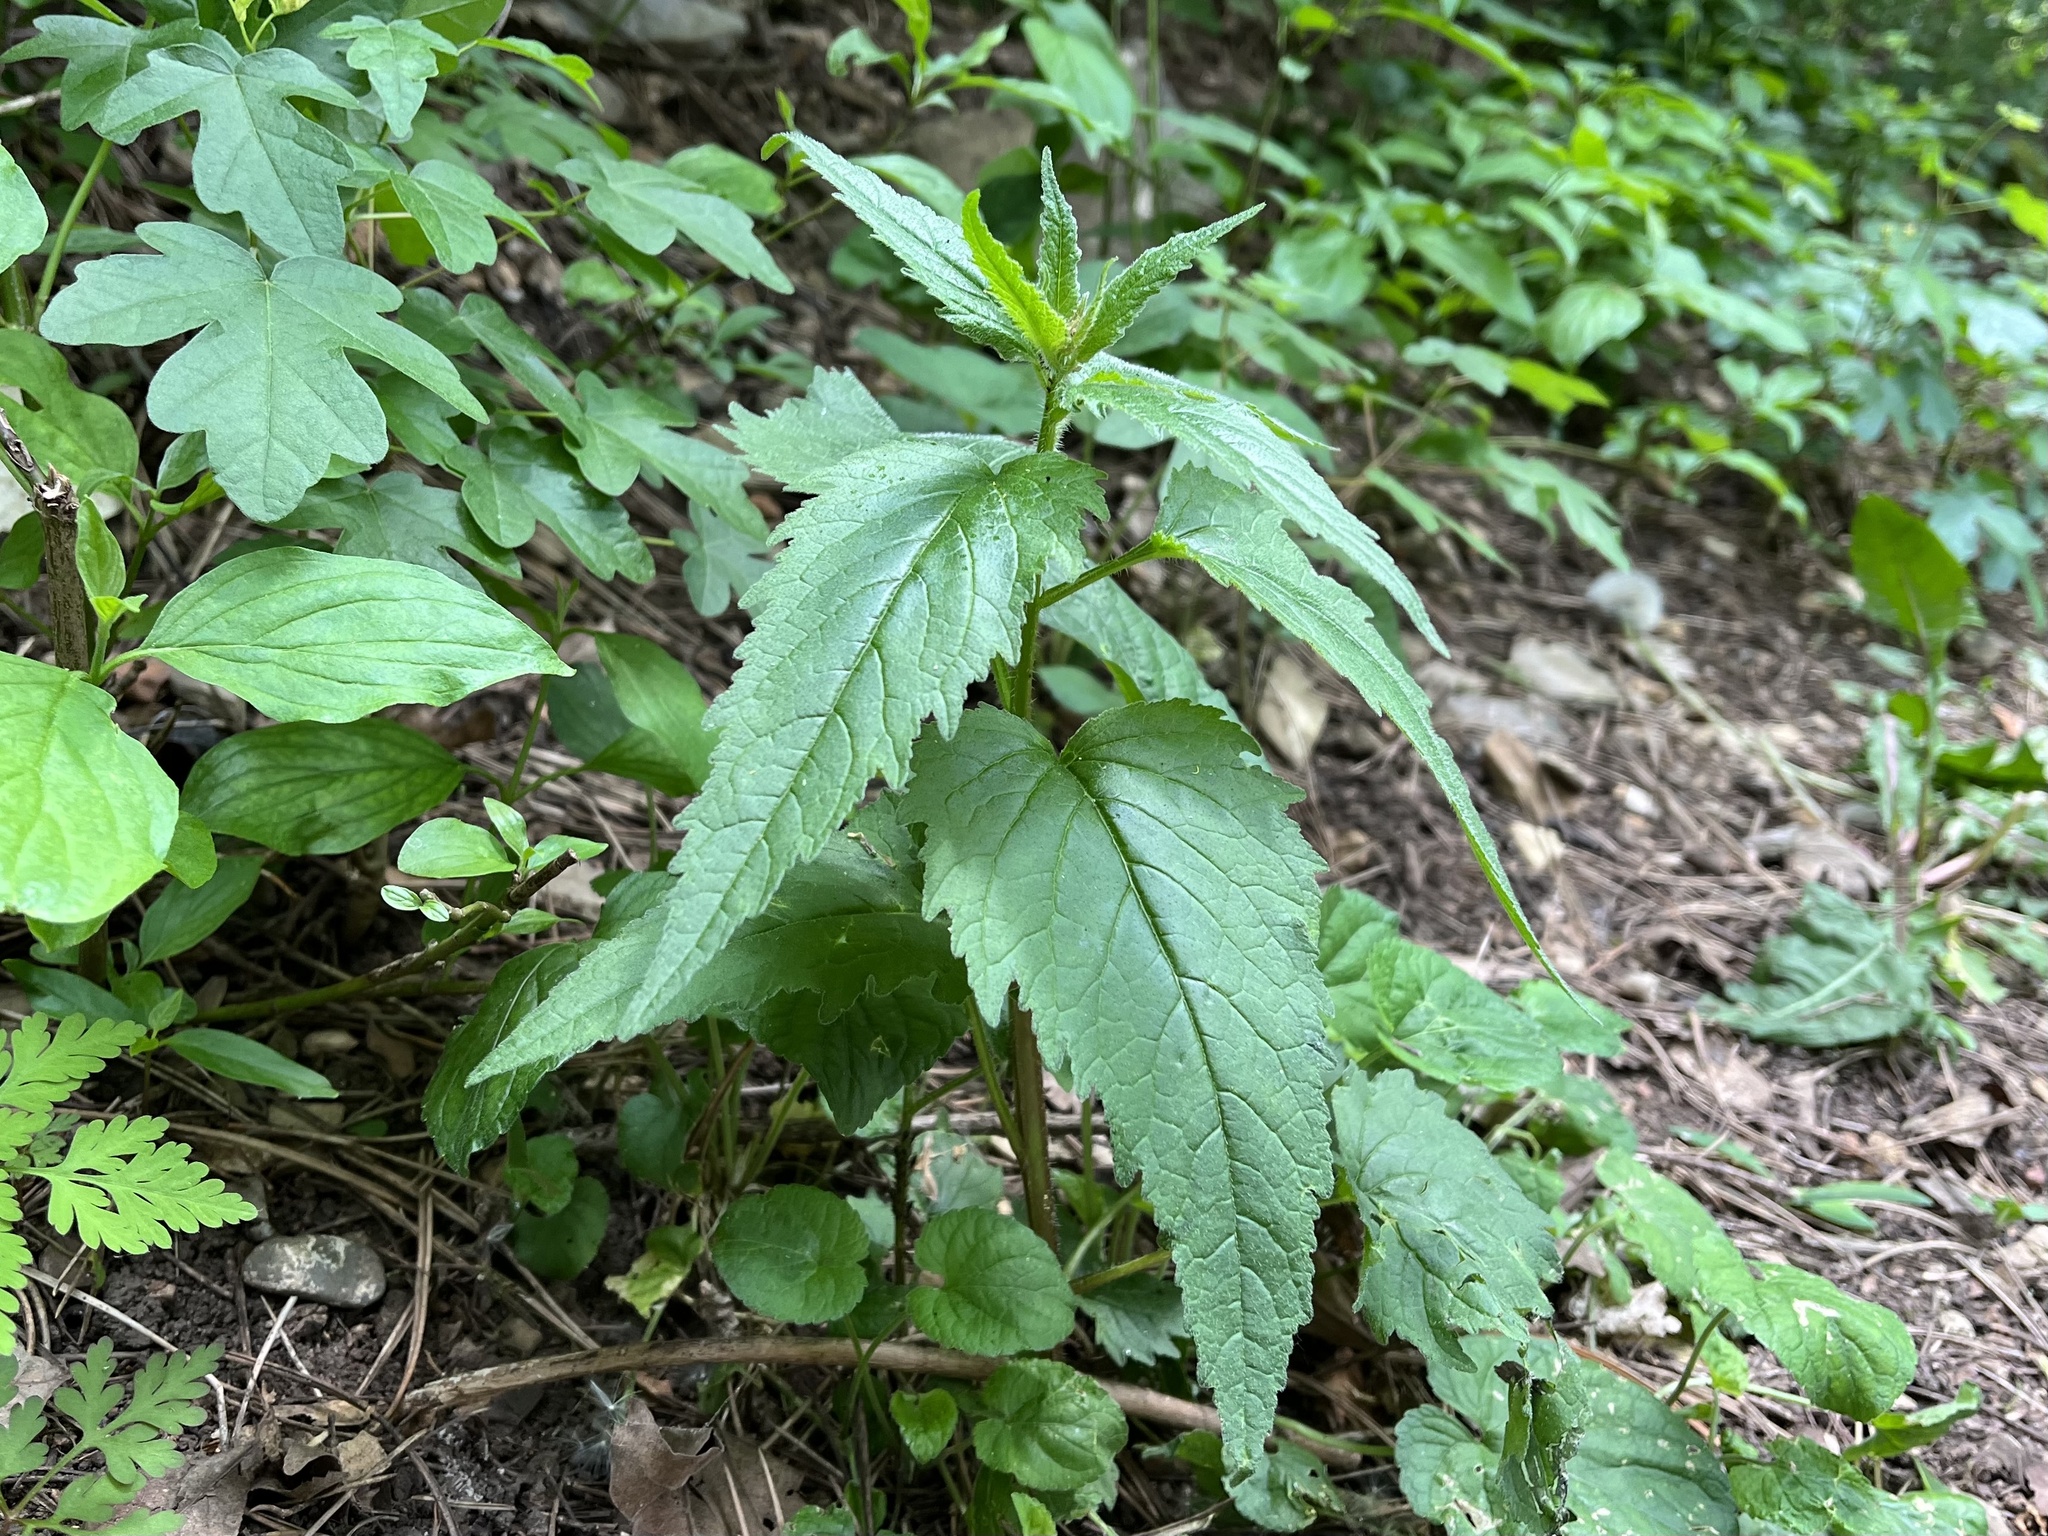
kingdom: Plantae
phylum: Tracheophyta
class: Magnoliopsida
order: Asterales
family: Campanulaceae
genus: Campanula
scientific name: Campanula trachelium
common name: Nettle-leaved bellflower
